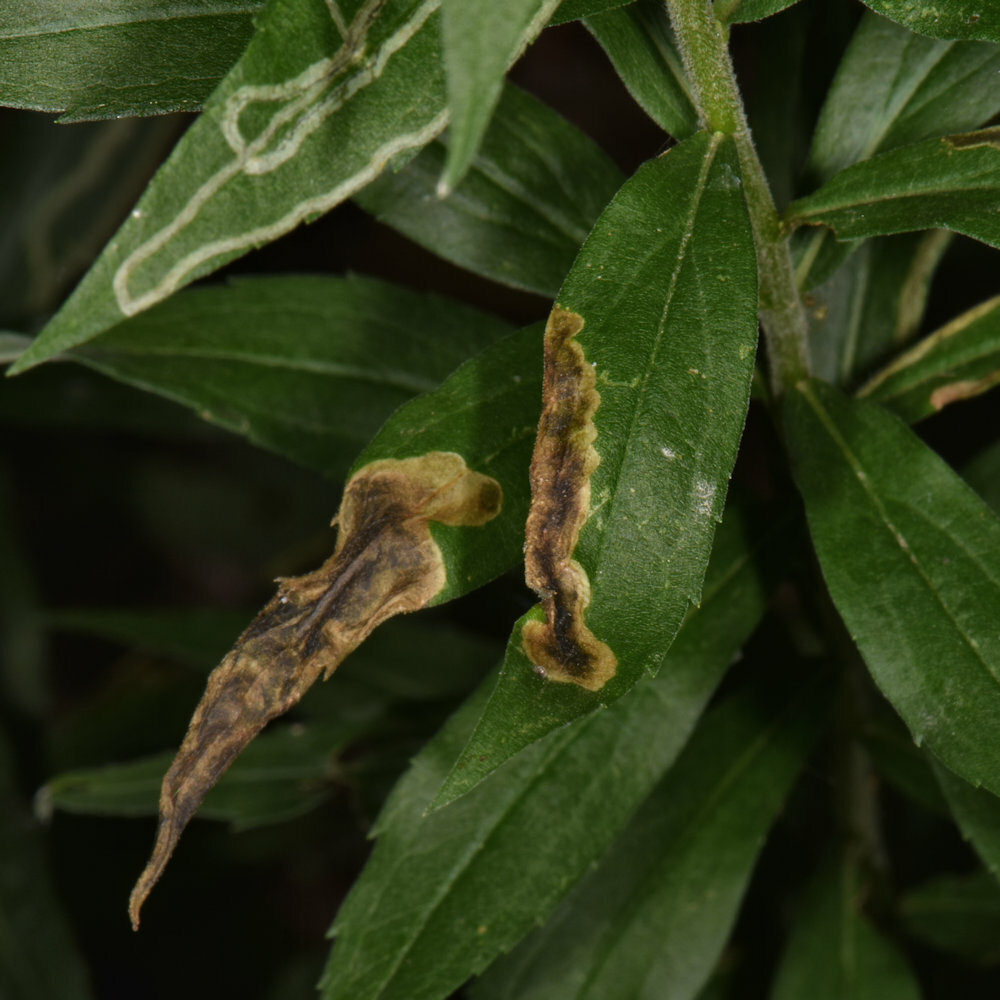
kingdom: Animalia
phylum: Arthropoda
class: Insecta
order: Diptera
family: Agromyzidae
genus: Nemorimyza
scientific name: Nemorimyza posticata
